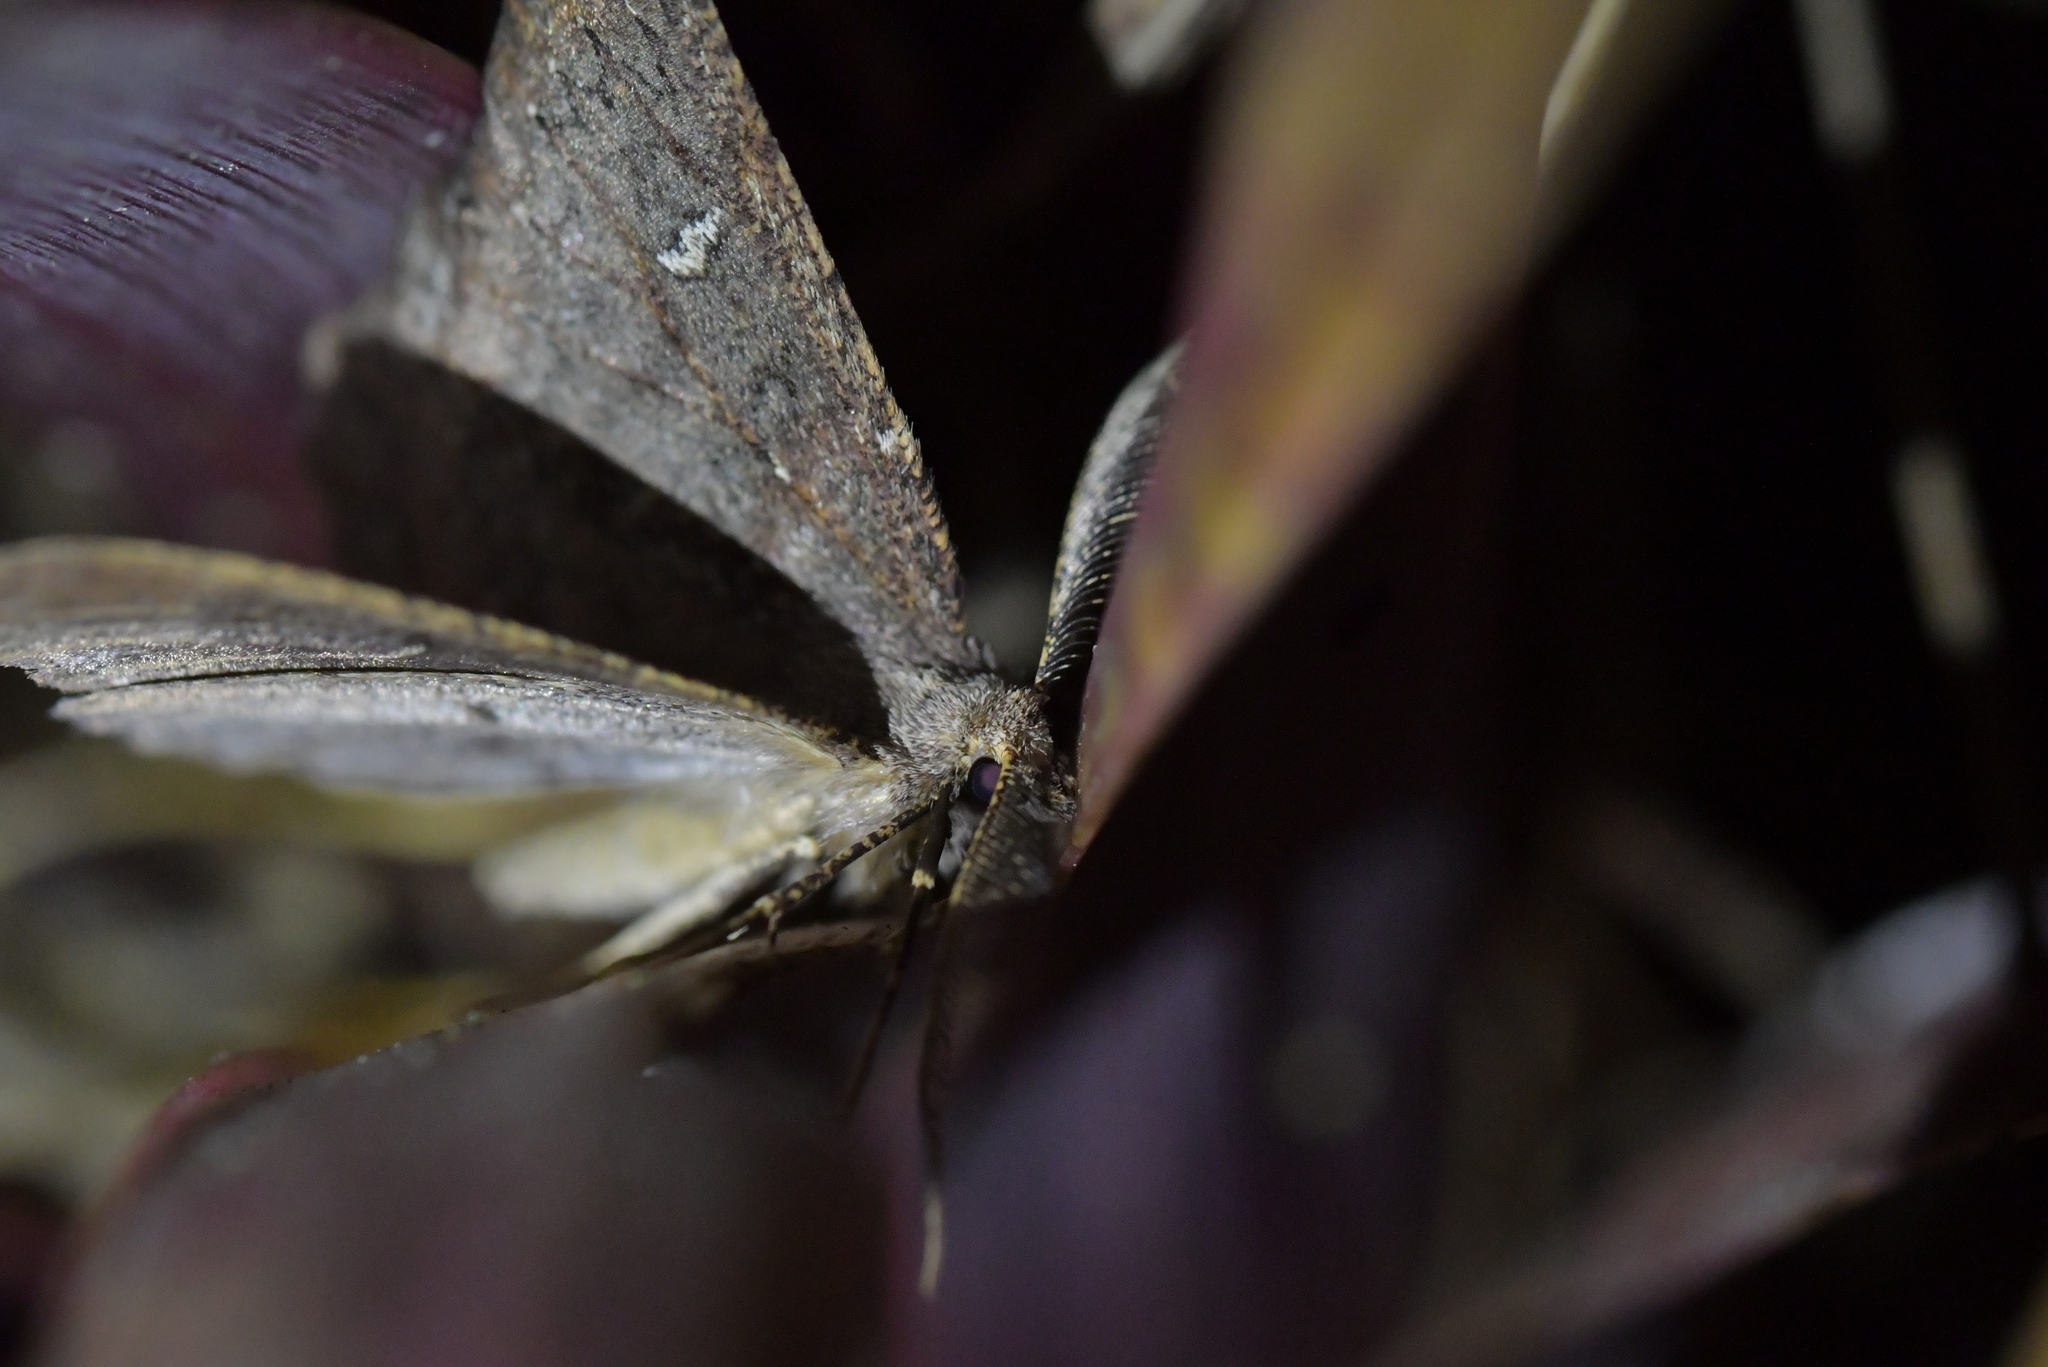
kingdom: Animalia
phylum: Arthropoda
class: Insecta
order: Lepidoptera
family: Geometridae
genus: Cleora
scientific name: Cleora scriptaria
